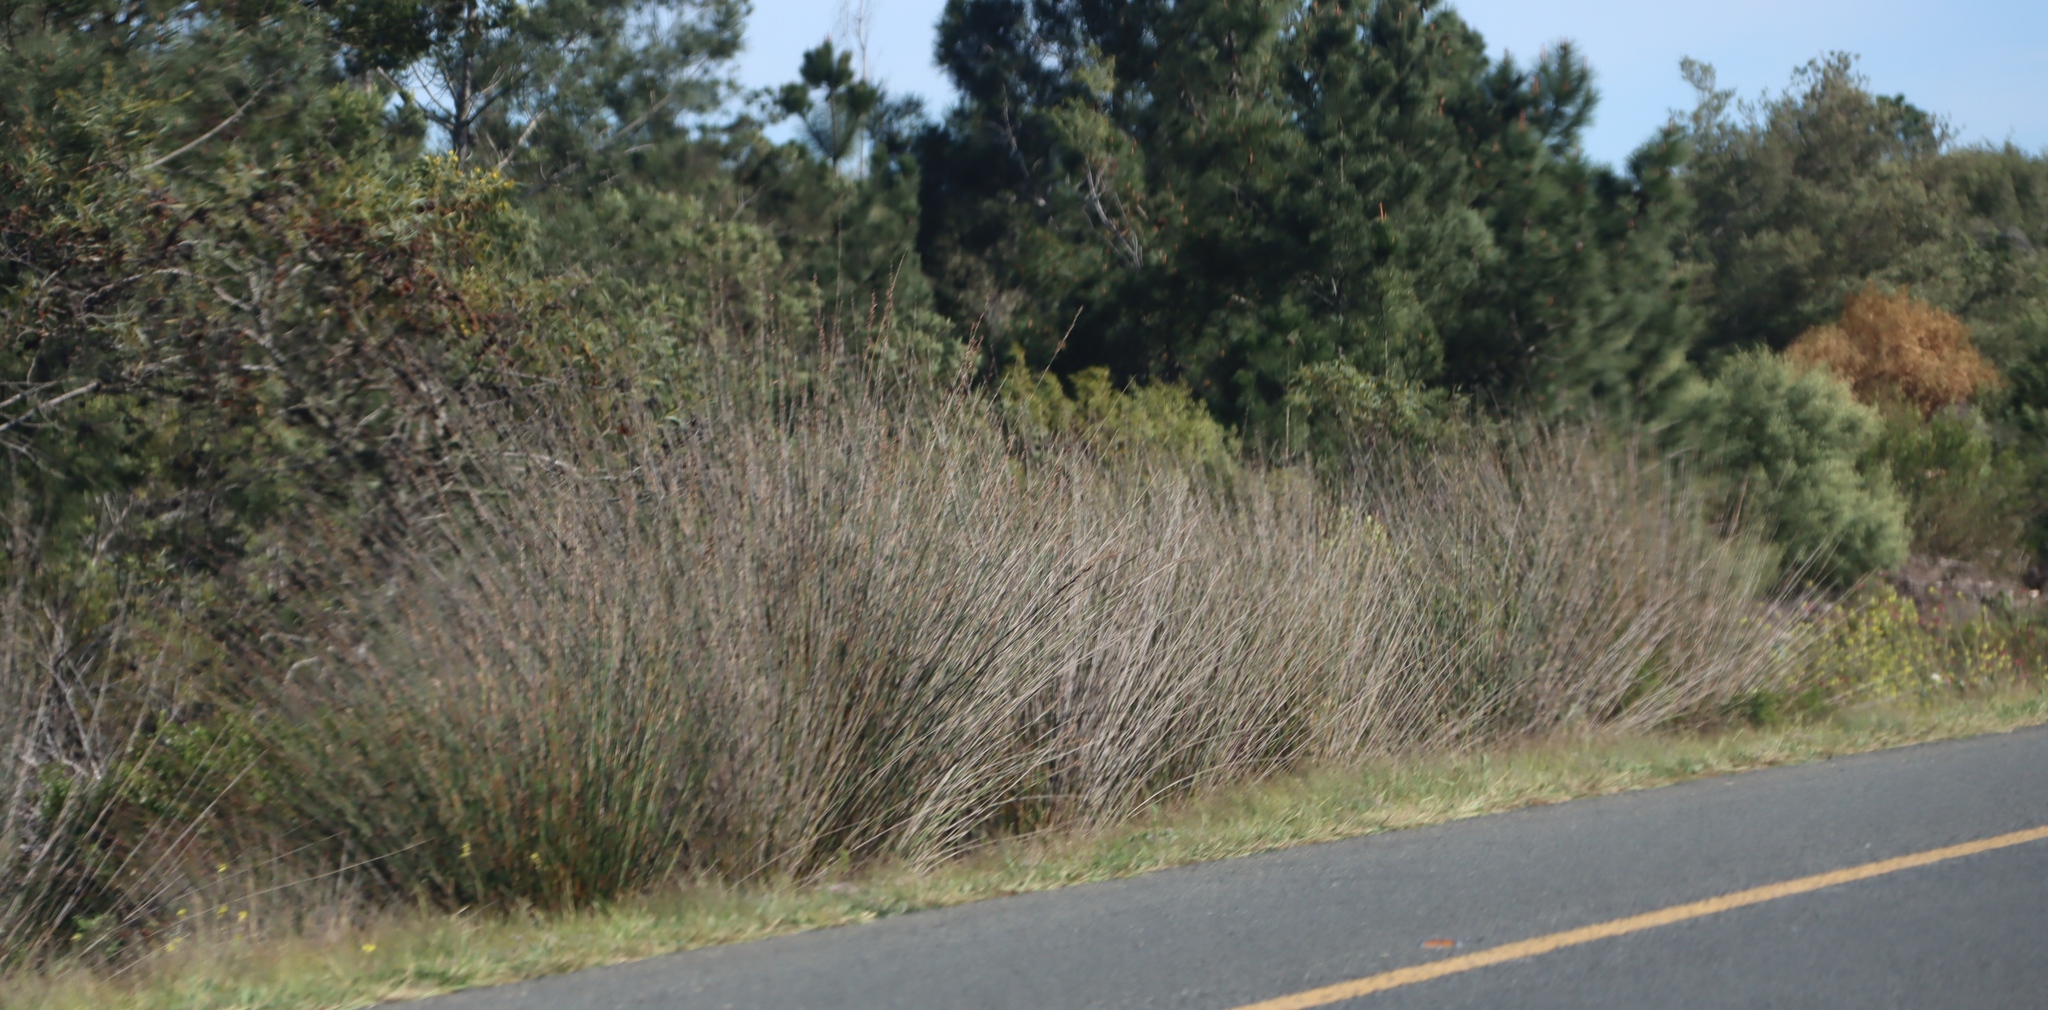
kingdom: Plantae
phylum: Tracheophyta
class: Liliopsida
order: Poales
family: Restionaceae
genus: Thamnochortus
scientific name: Thamnochortus insignis
